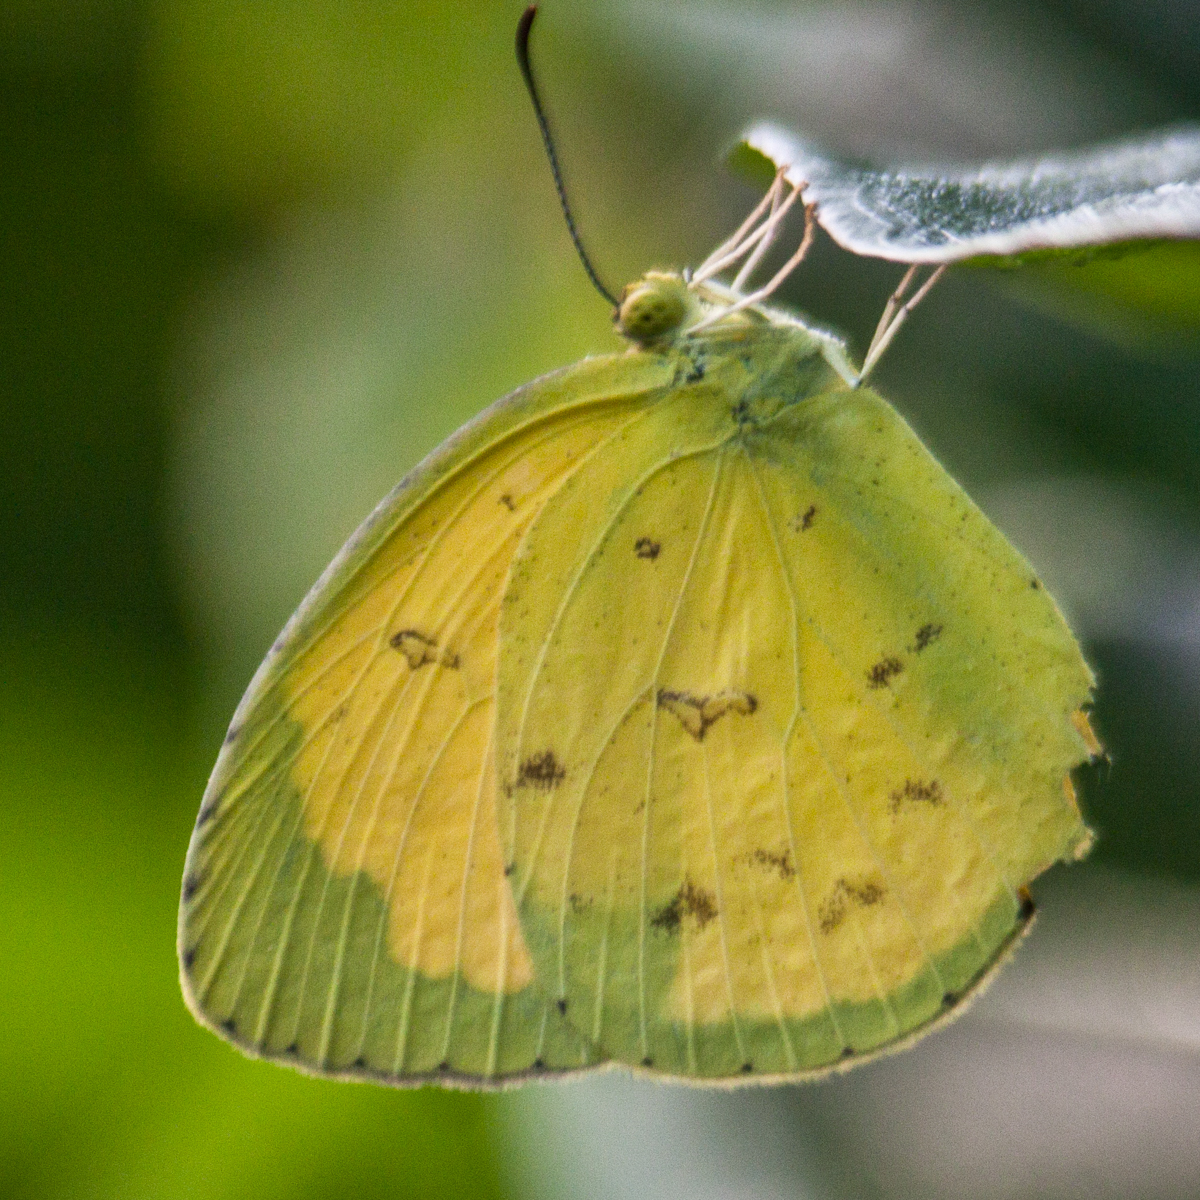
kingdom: Animalia
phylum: Arthropoda
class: Insecta
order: Lepidoptera
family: Pieridae
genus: Eurema
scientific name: Eurema hecabe
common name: Pale grass yellow
